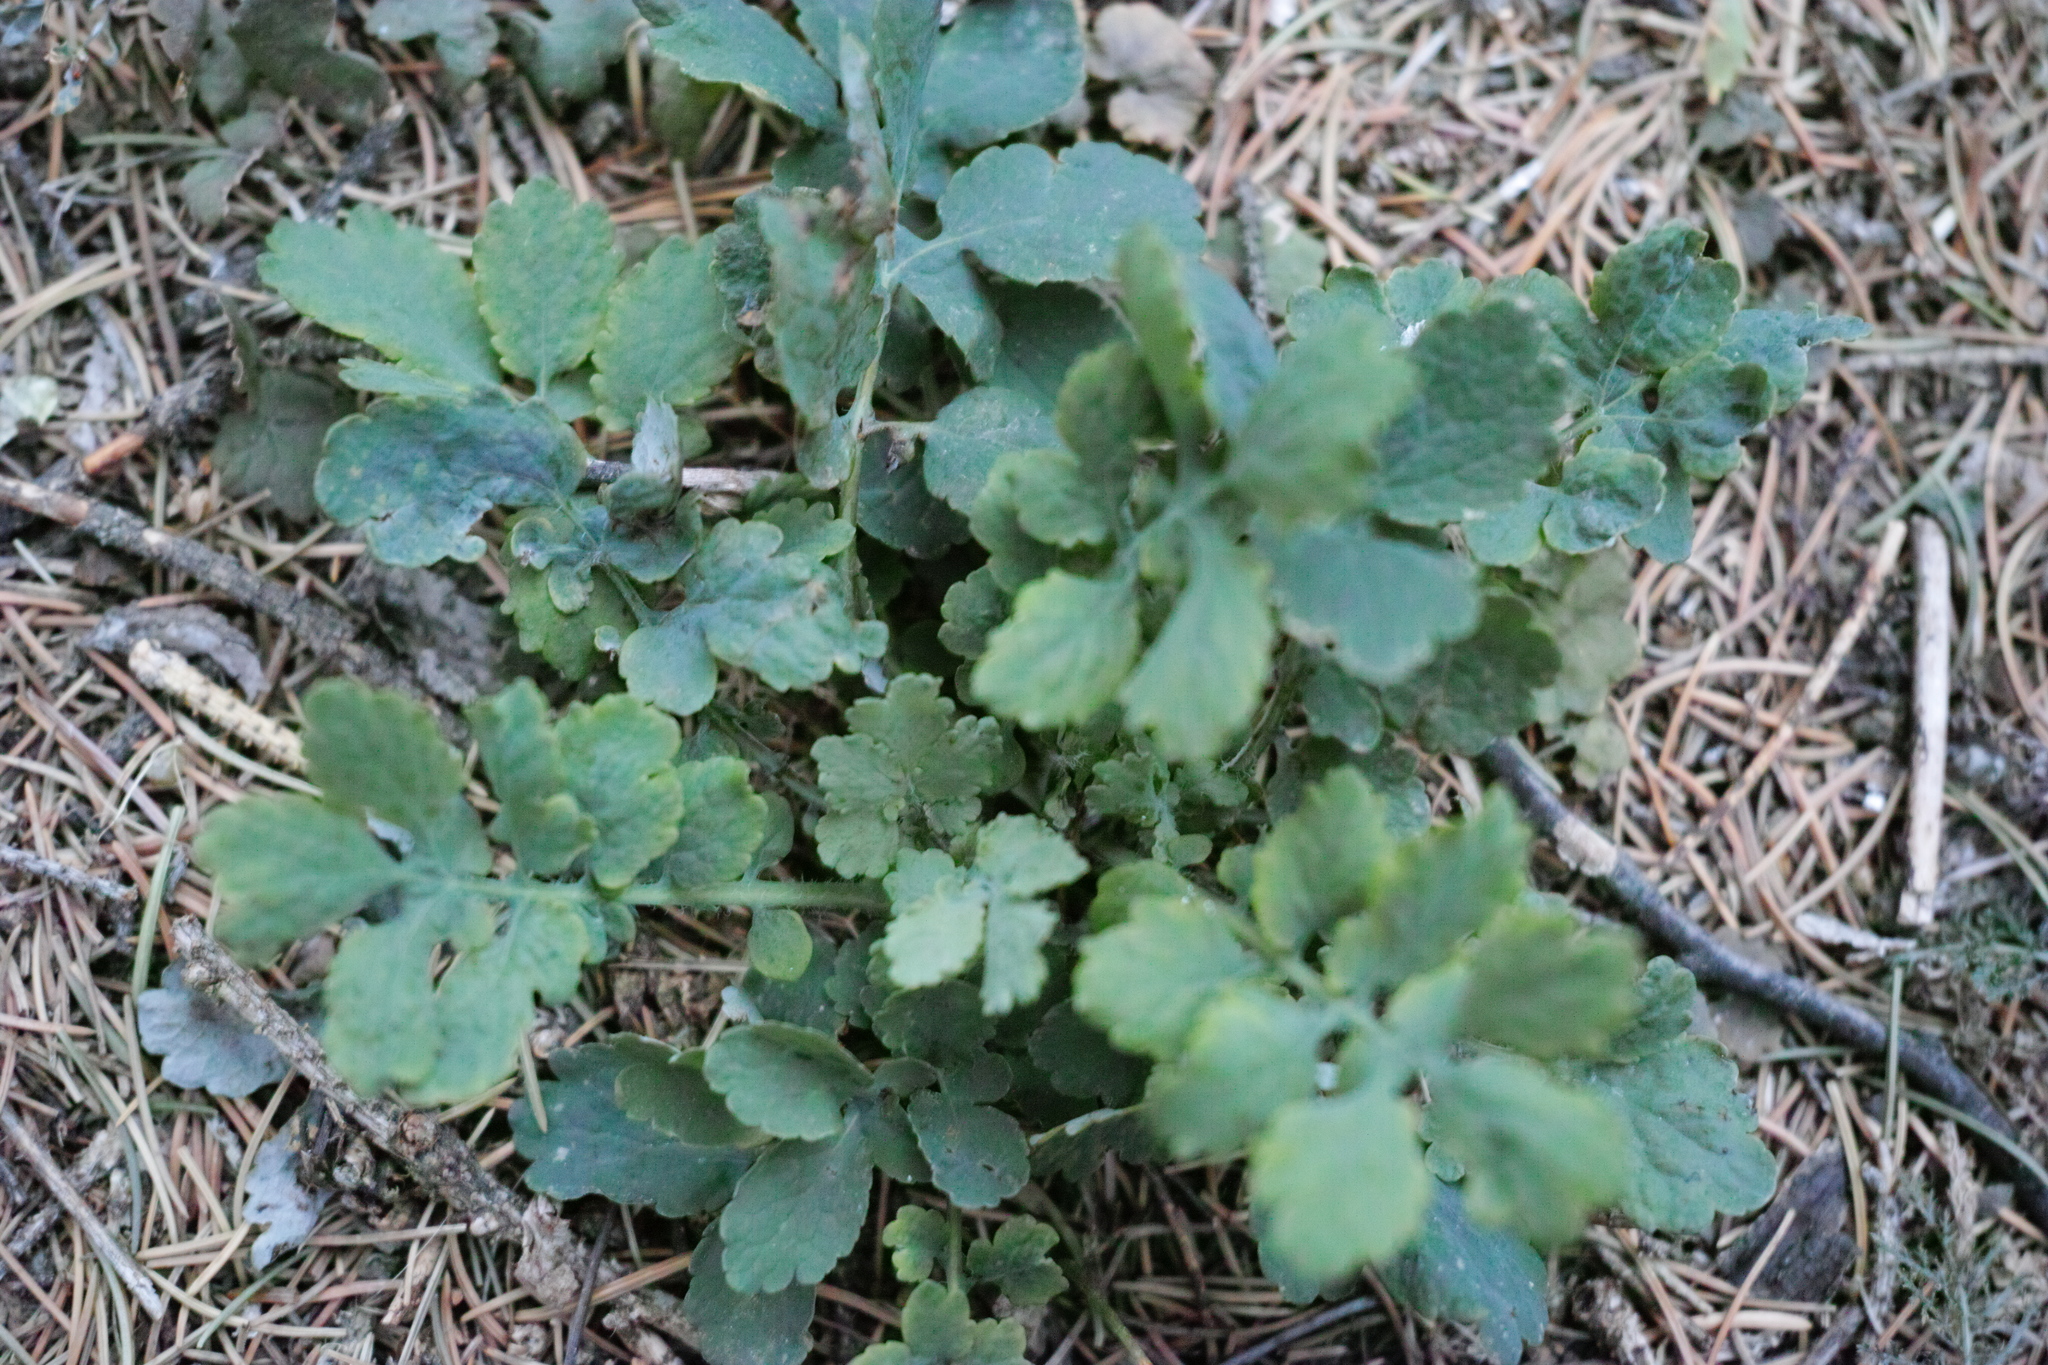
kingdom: Plantae
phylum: Tracheophyta
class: Magnoliopsida
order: Ranunculales
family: Papaveraceae
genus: Chelidonium
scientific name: Chelidonium majus
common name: Greater celandine
